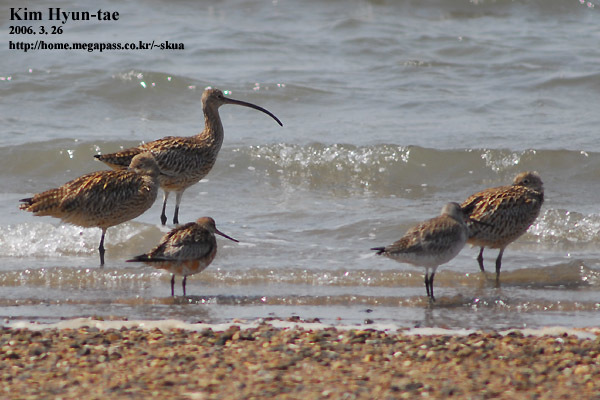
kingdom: Animalia
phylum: Chordata
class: Aves
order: Charadriiformes
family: Scolopacidae
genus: Numenius
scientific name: Numenius madagascariensis
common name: Far eastern curlew
